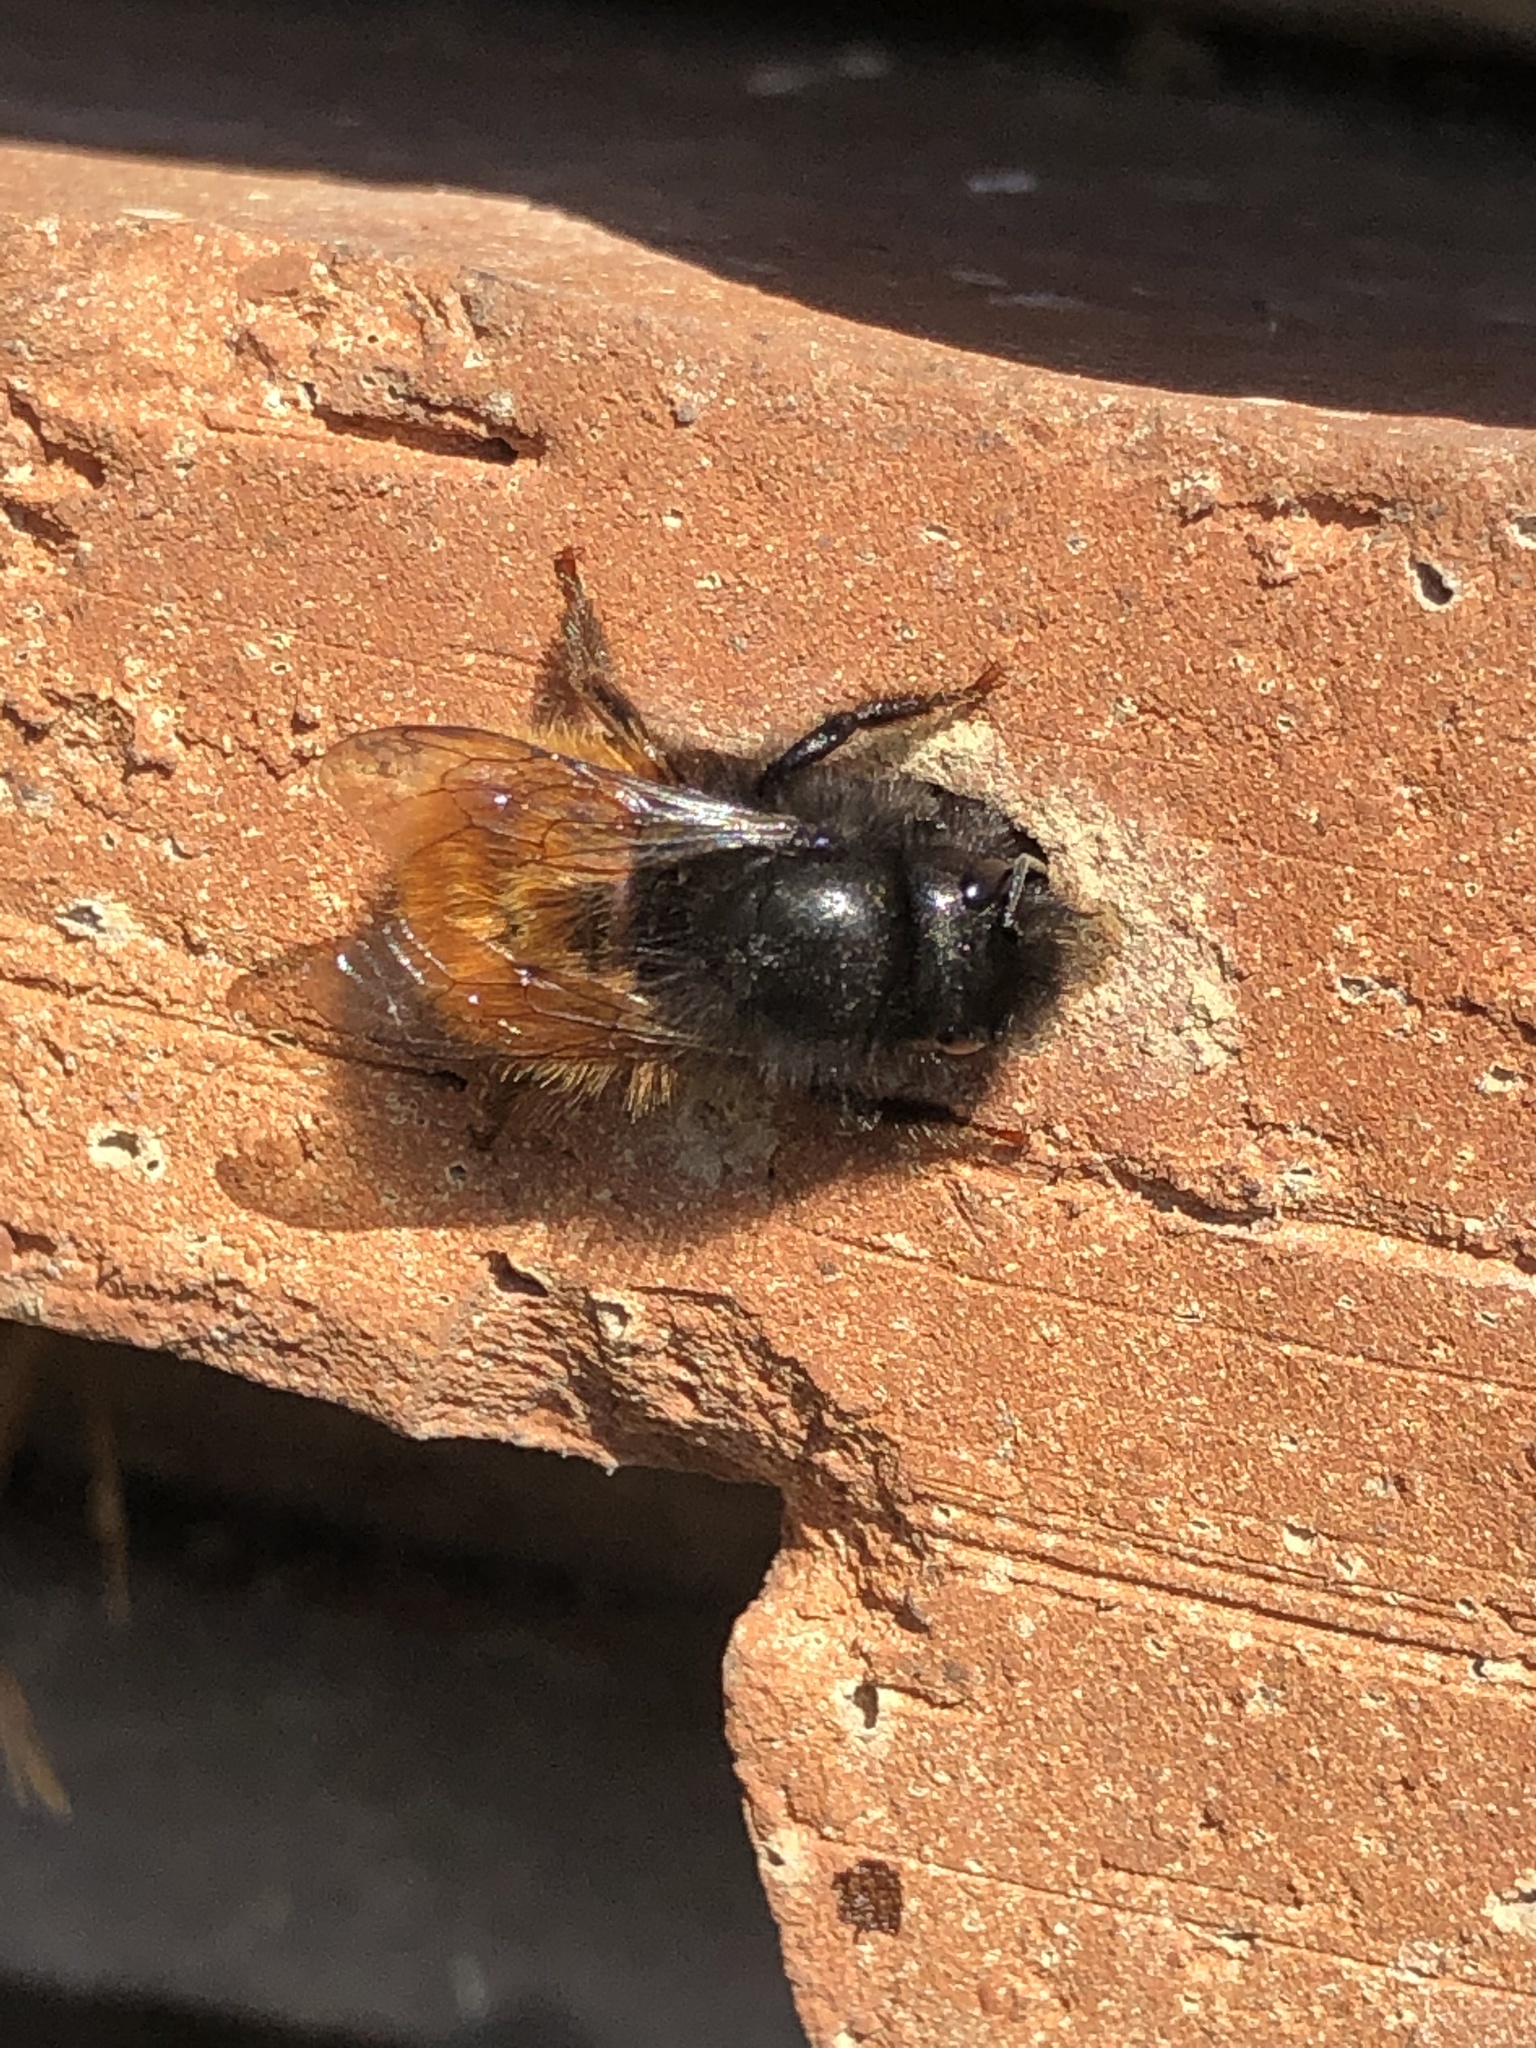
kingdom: Animalia
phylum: Arthropoda
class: Insecta
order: Hymenoptera
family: Megachilidae
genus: Osmia
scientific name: Osmia cornuta
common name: Mason bee
